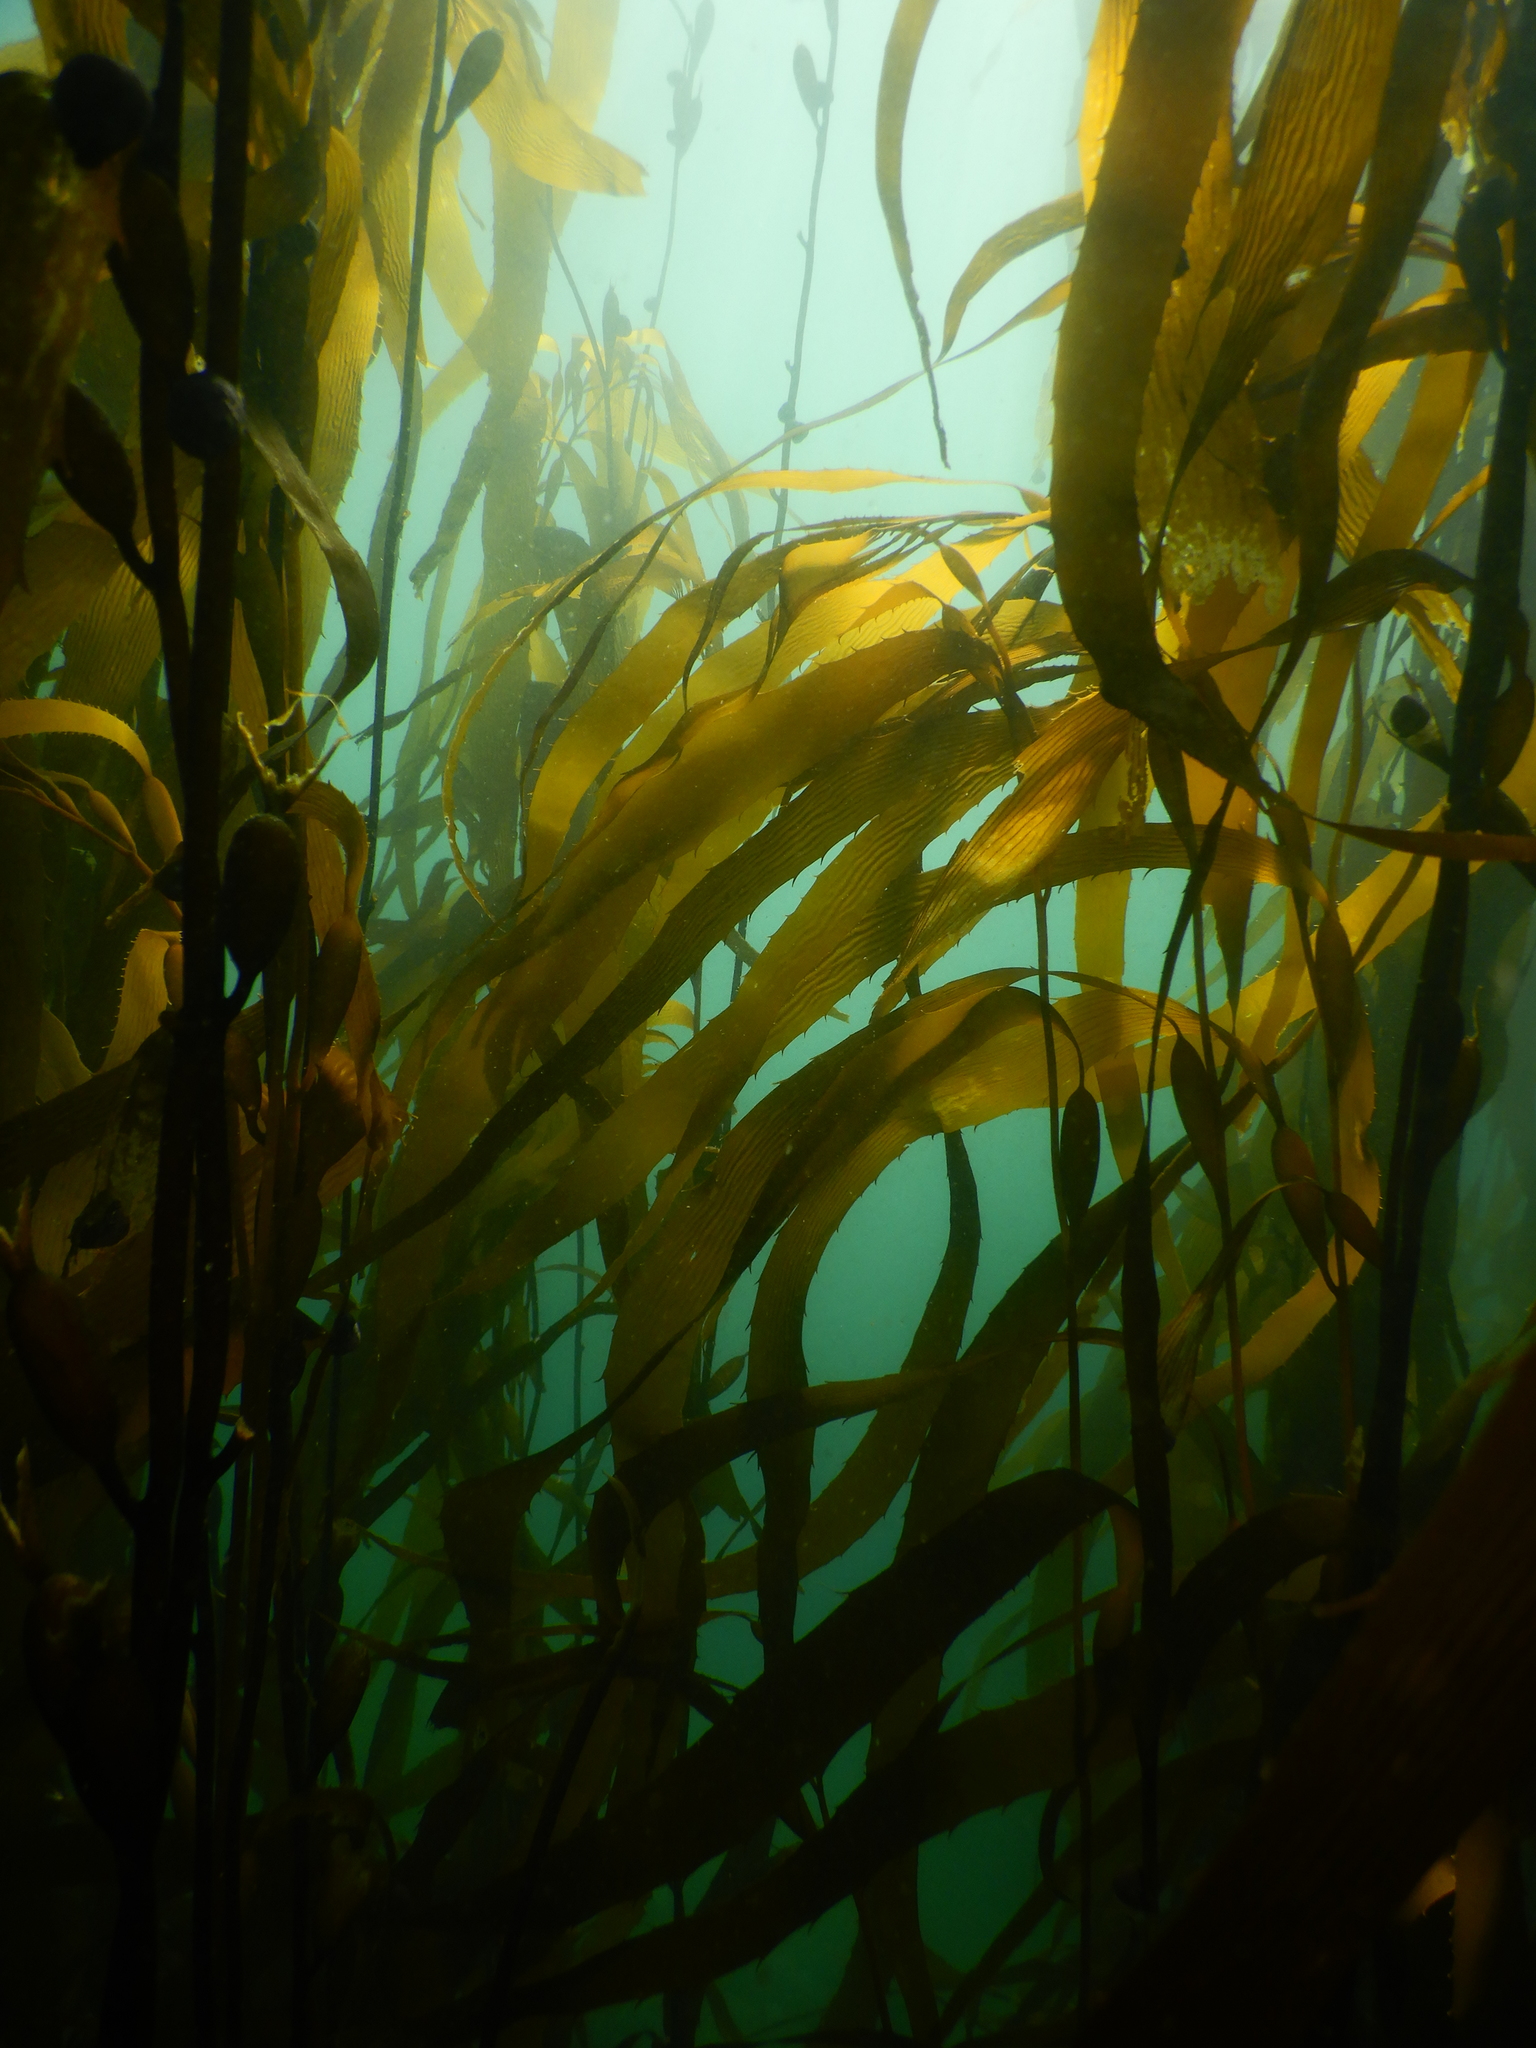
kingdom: Chromista
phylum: Ochrophyta
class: Phaeophyceae
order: Laminariales
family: Laminariaceae
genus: Macrocystis
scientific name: Macrocystis pyrifera
